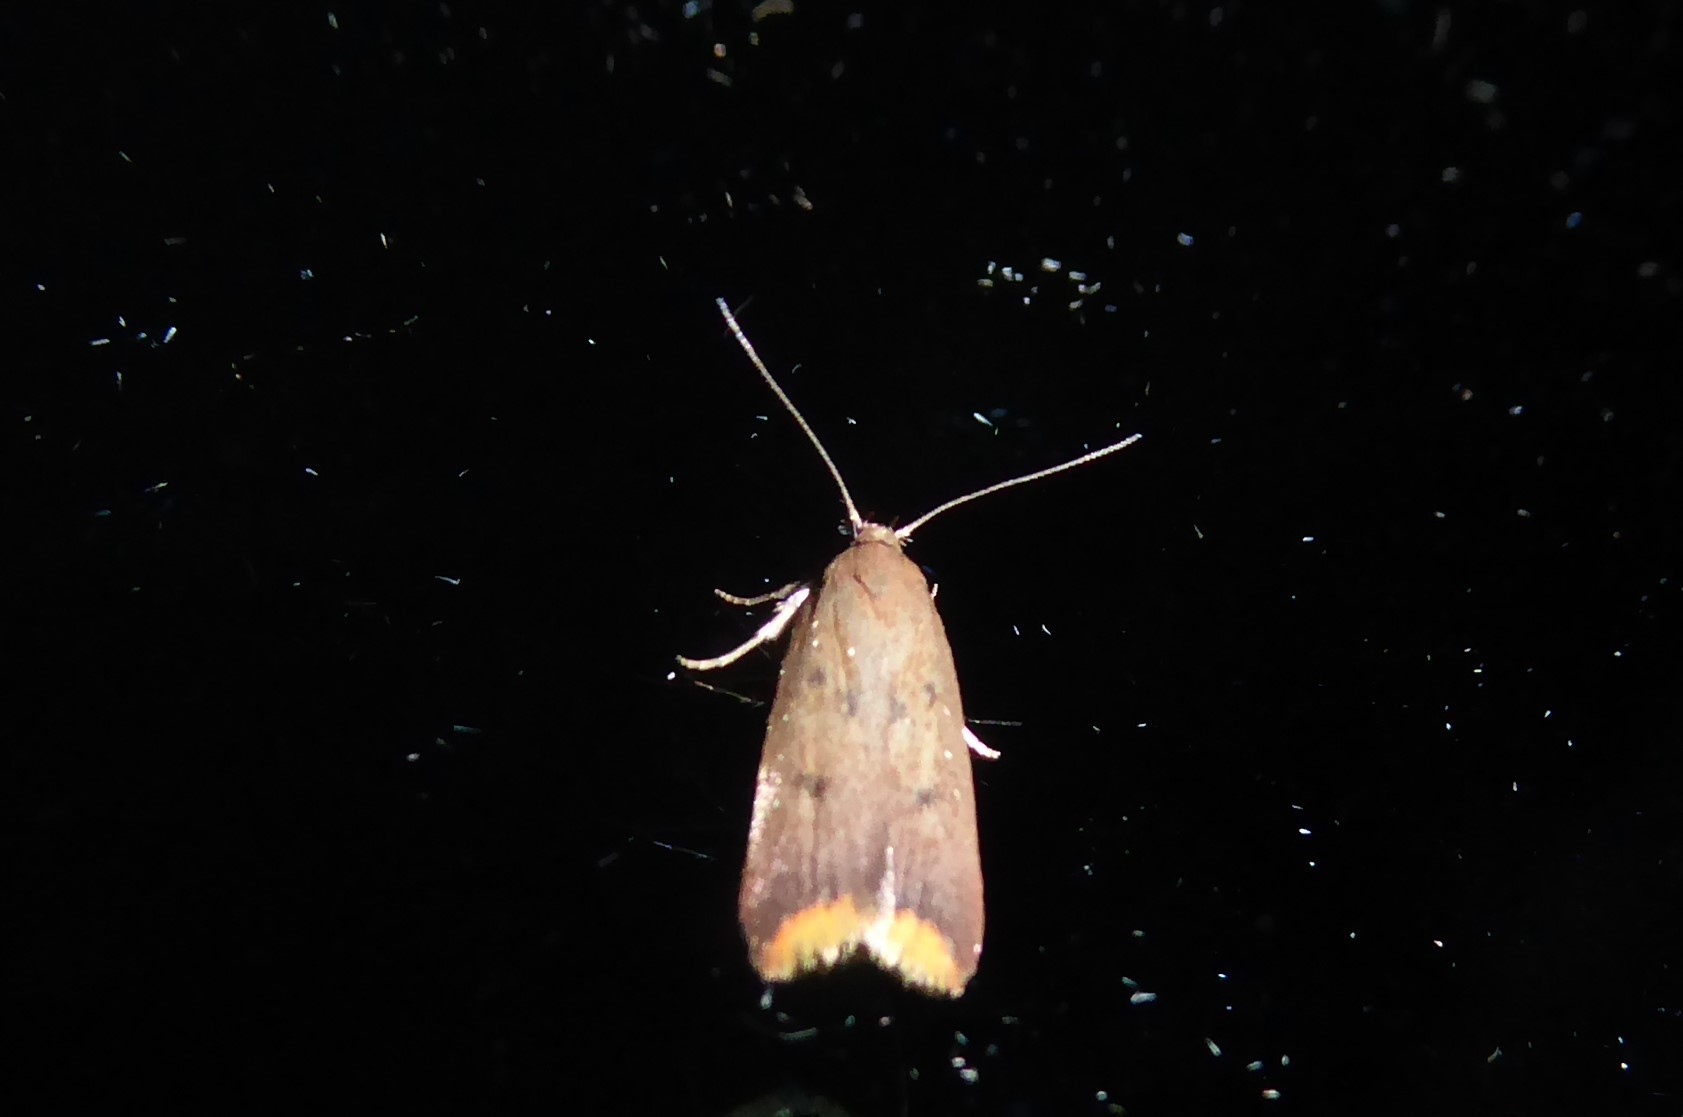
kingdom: Animalia
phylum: Arthropoda
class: Insecta
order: Lepidoptera
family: Oecophoridae
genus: Tachystola
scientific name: Tachystola acroxantha
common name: Ruddy streak
